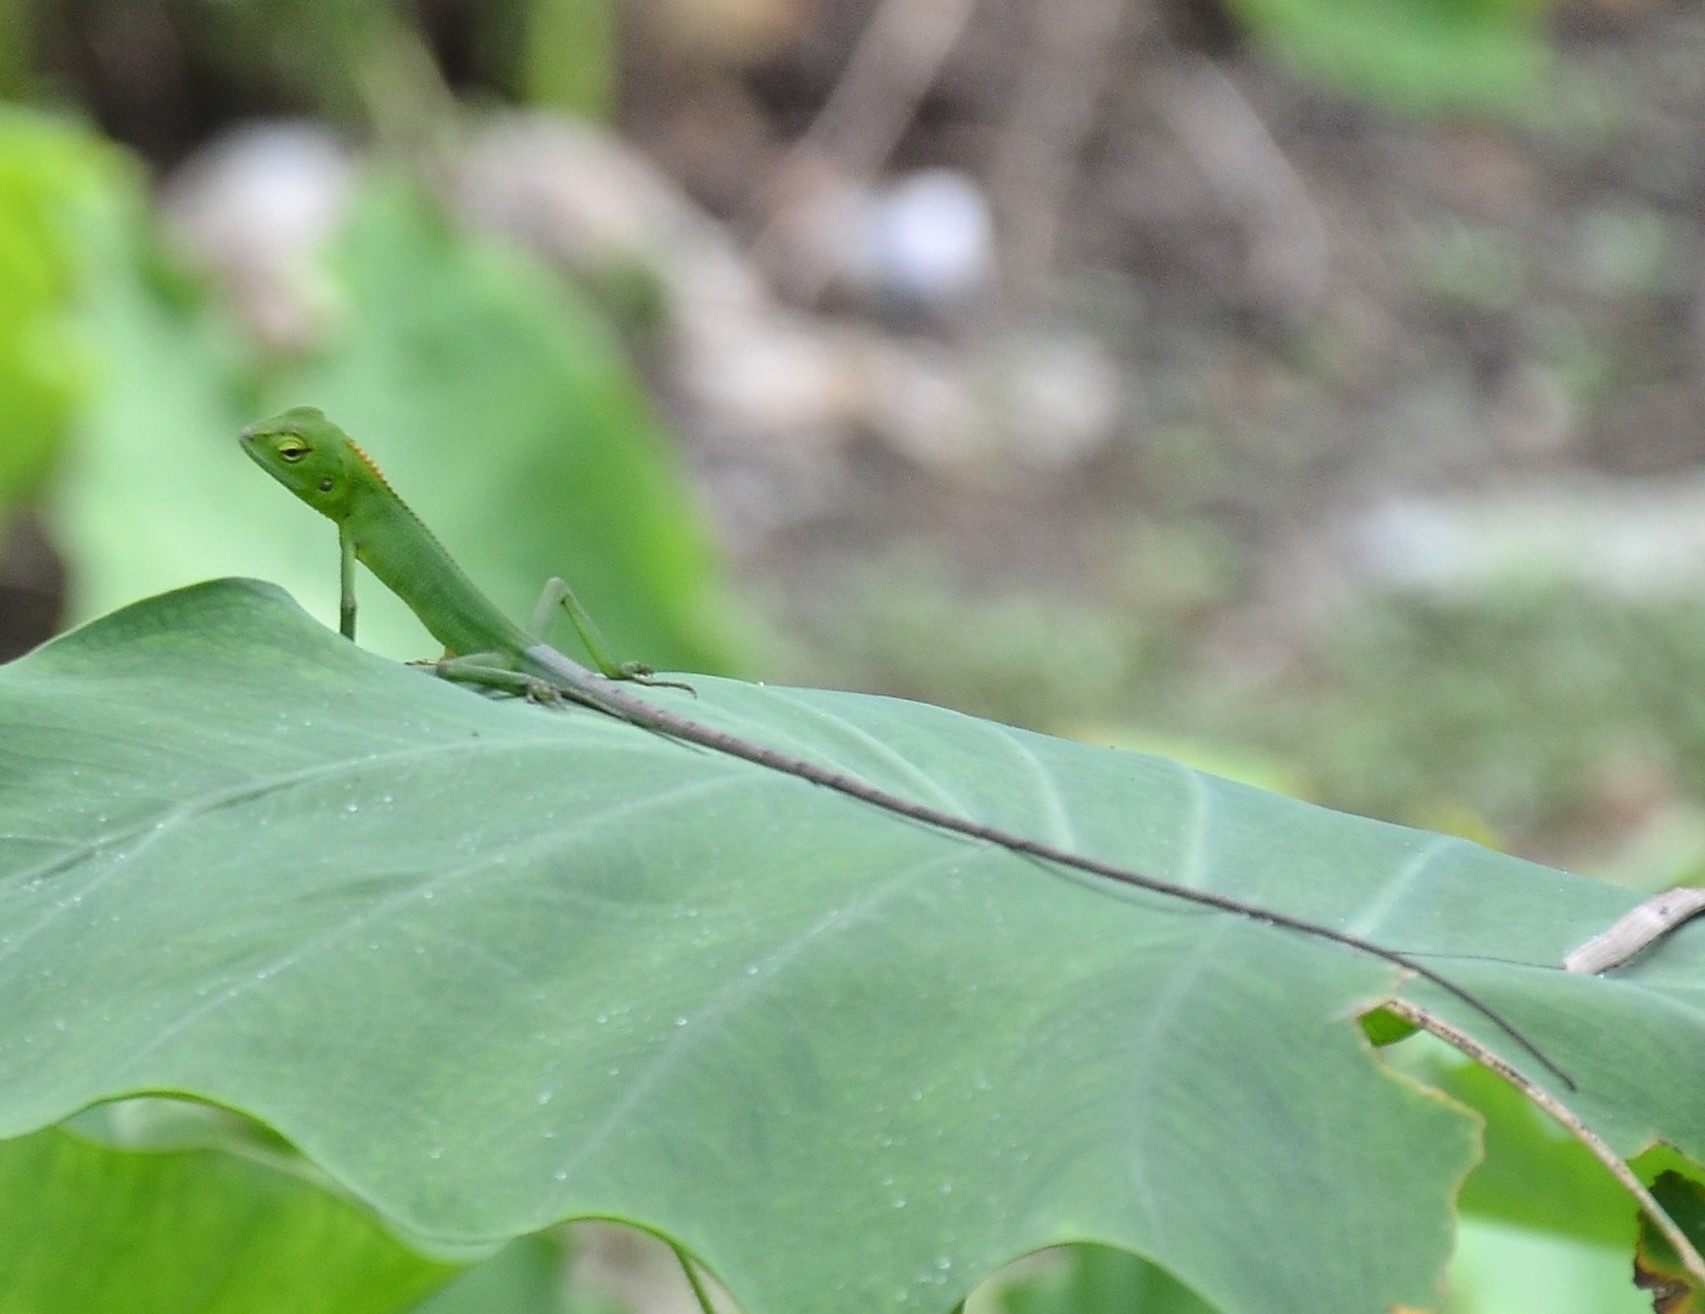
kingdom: Animalia
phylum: Chordata
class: Squamata
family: Agamidae
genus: Calotes
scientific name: Calotes calotes
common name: Common green forest lizard
